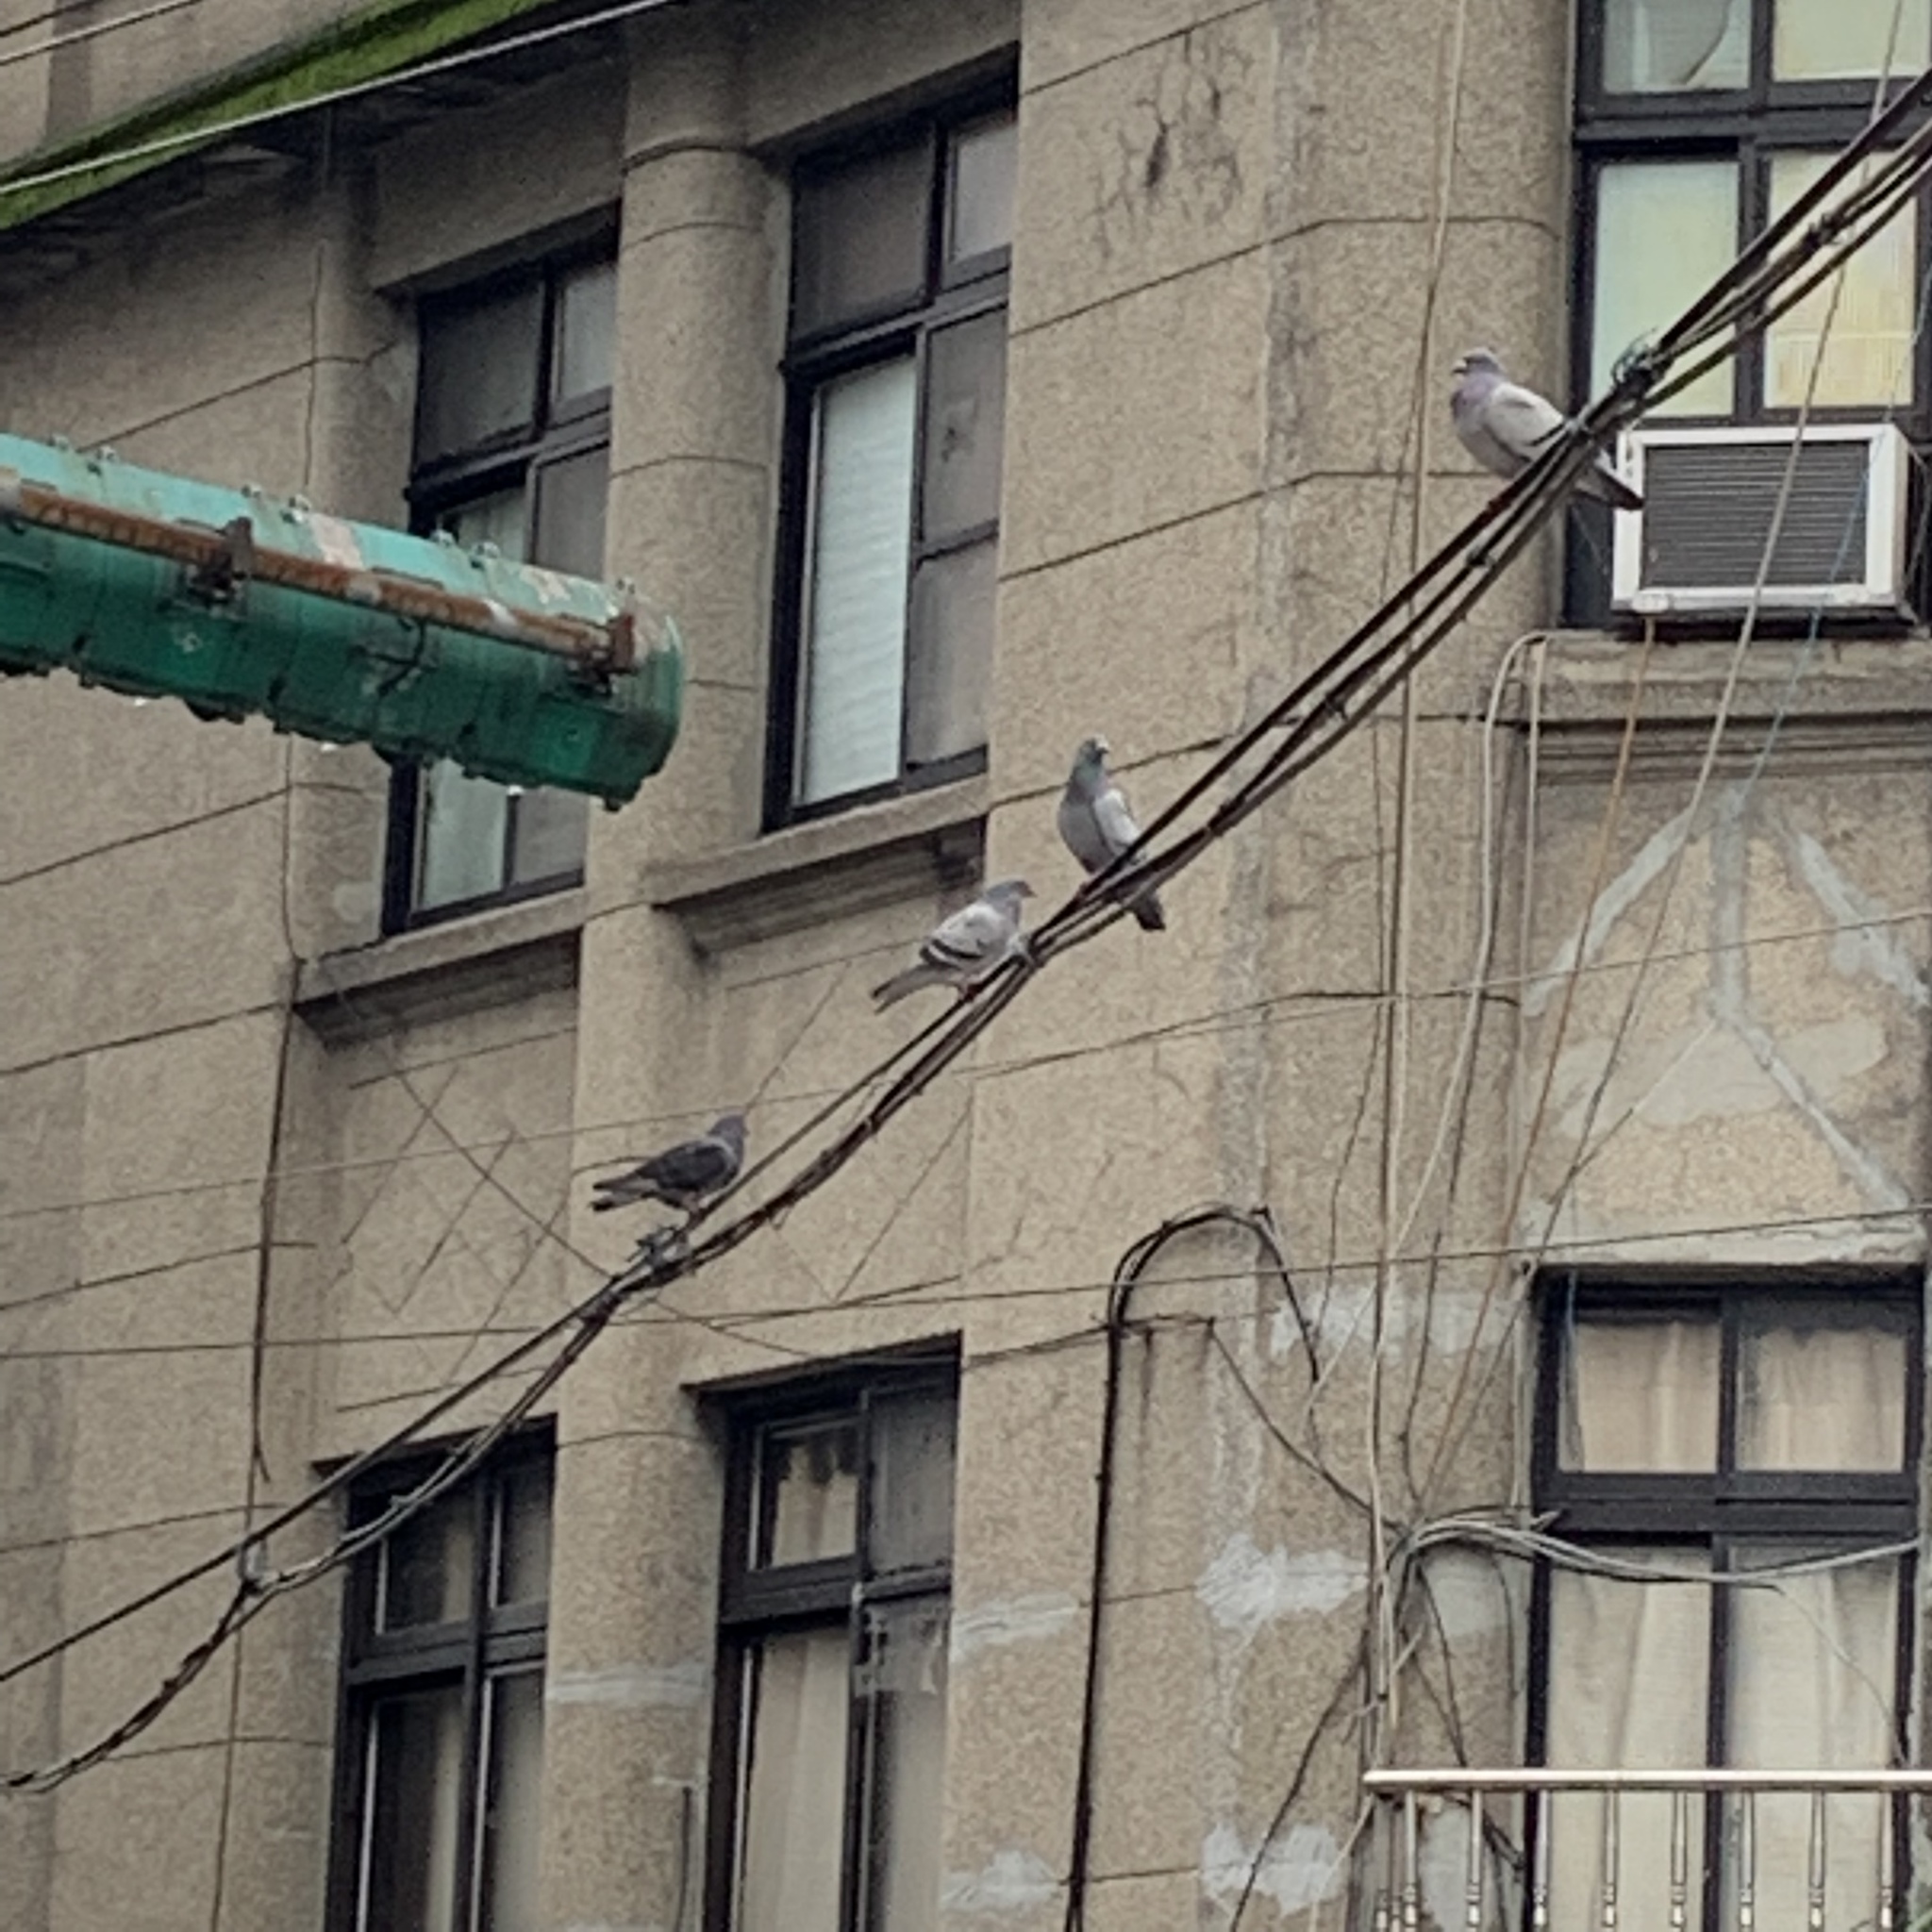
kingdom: Animalia
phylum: Chordata
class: Aves
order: Columbiformes
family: Columbidae
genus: Columba
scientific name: Columba livia
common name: Rock pigeon
